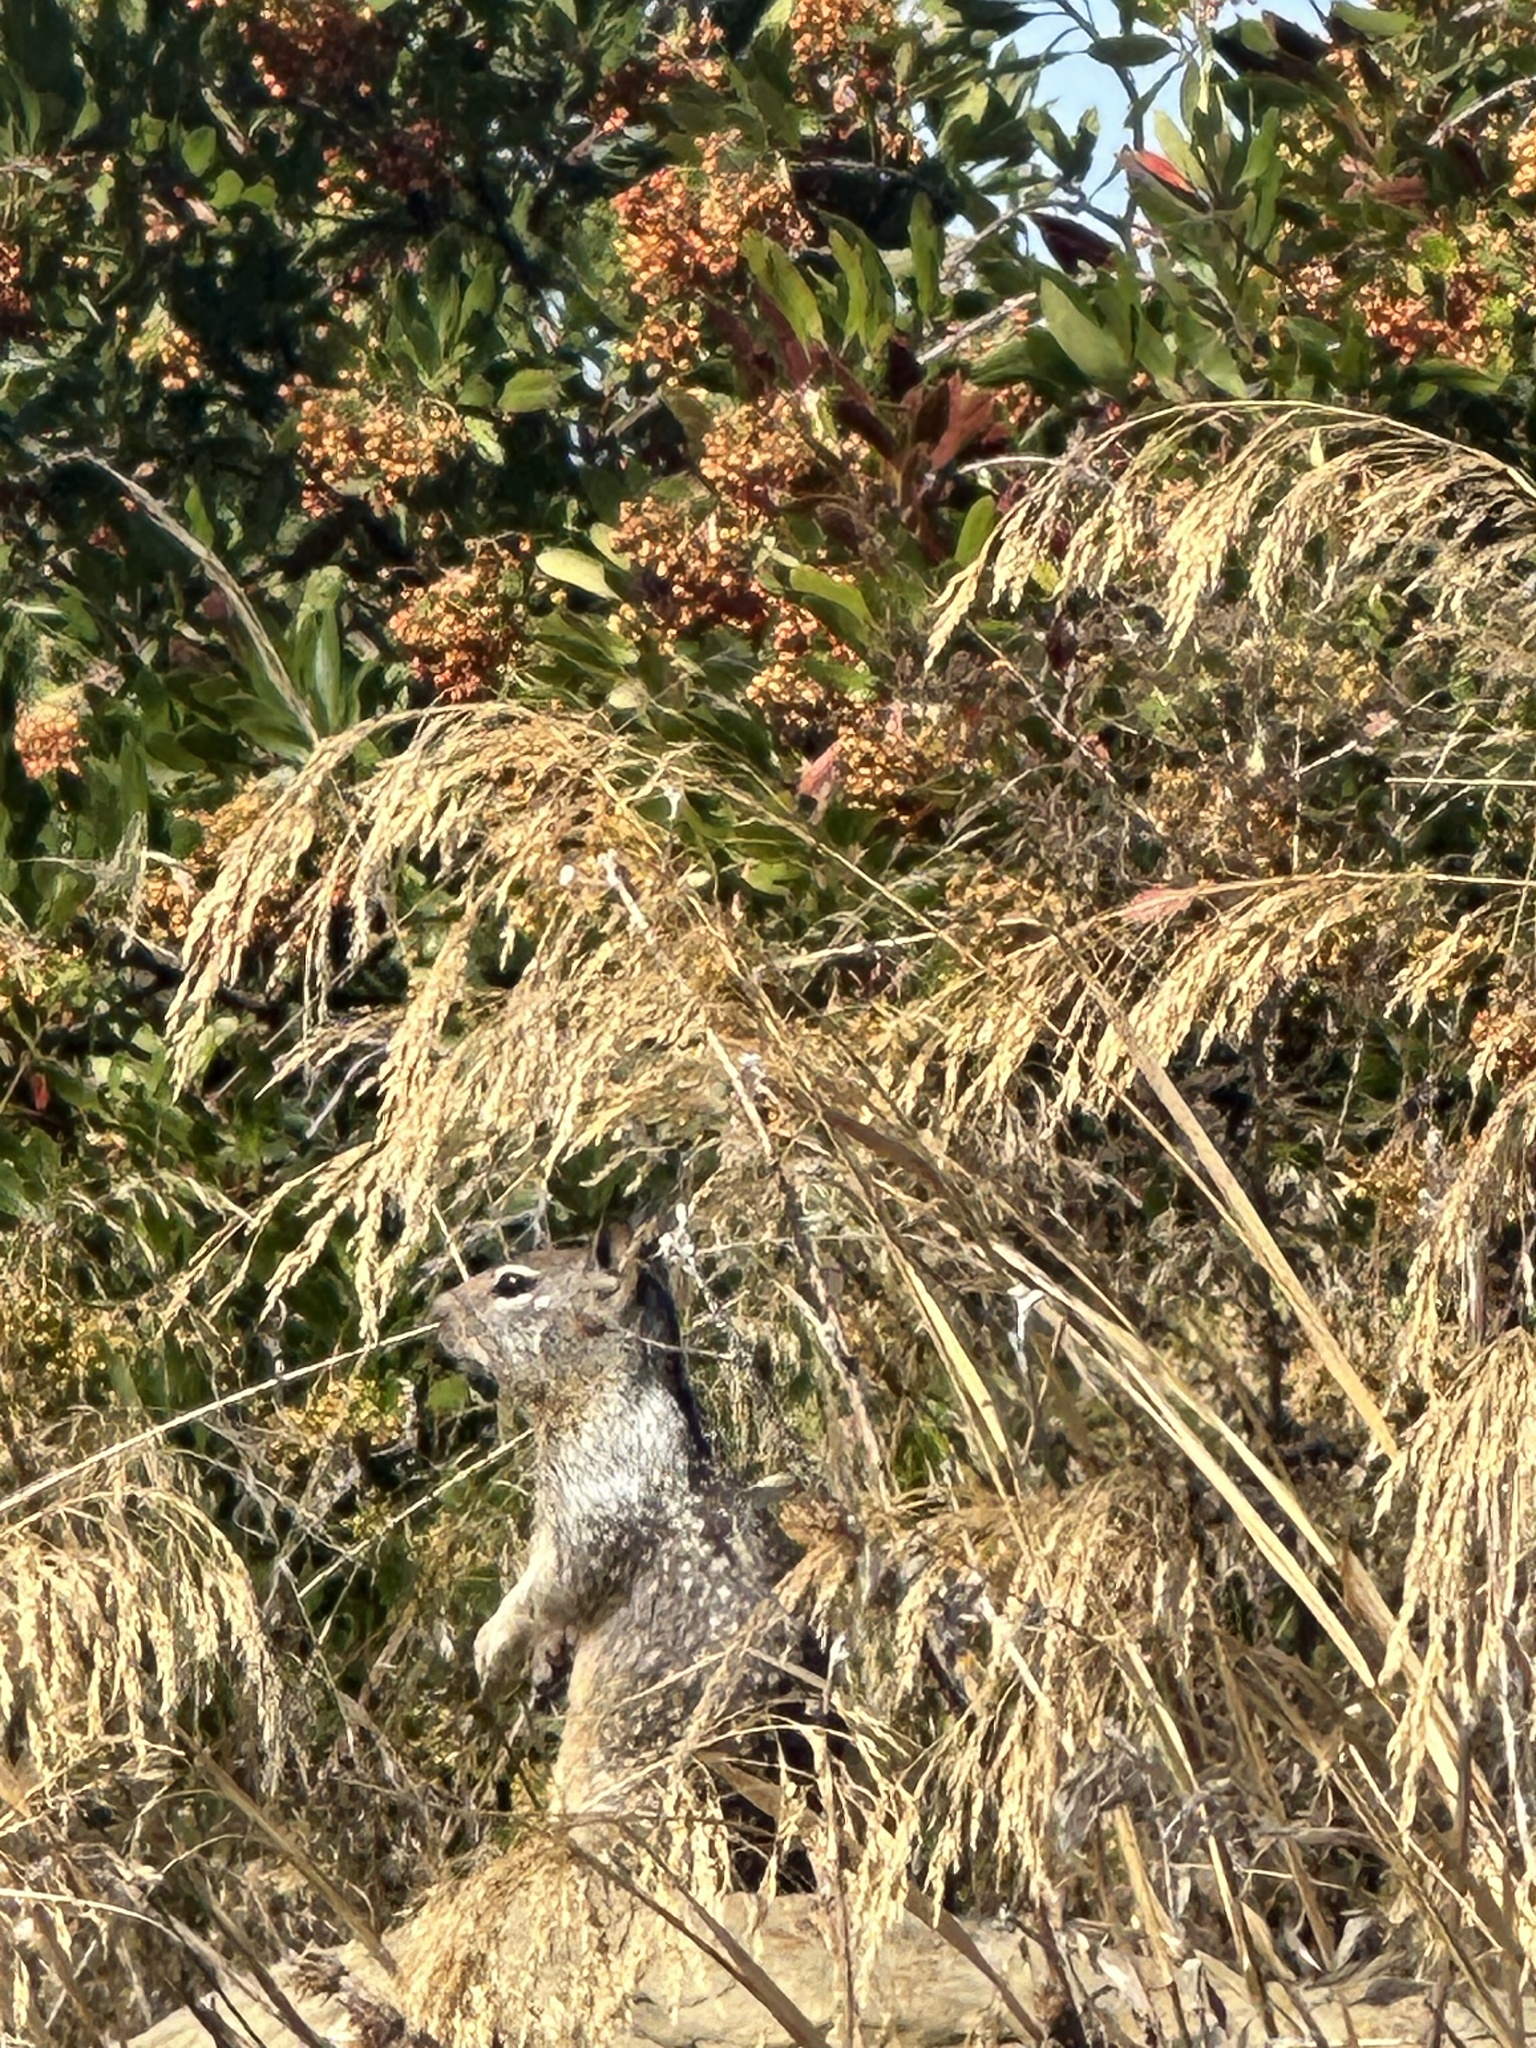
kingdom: Animalia
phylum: Chordata
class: Mammalia
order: Rodentia
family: Sciuridae
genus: Otospermophilus
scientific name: Otospermophilus beecheyi
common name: California ground squirrel
